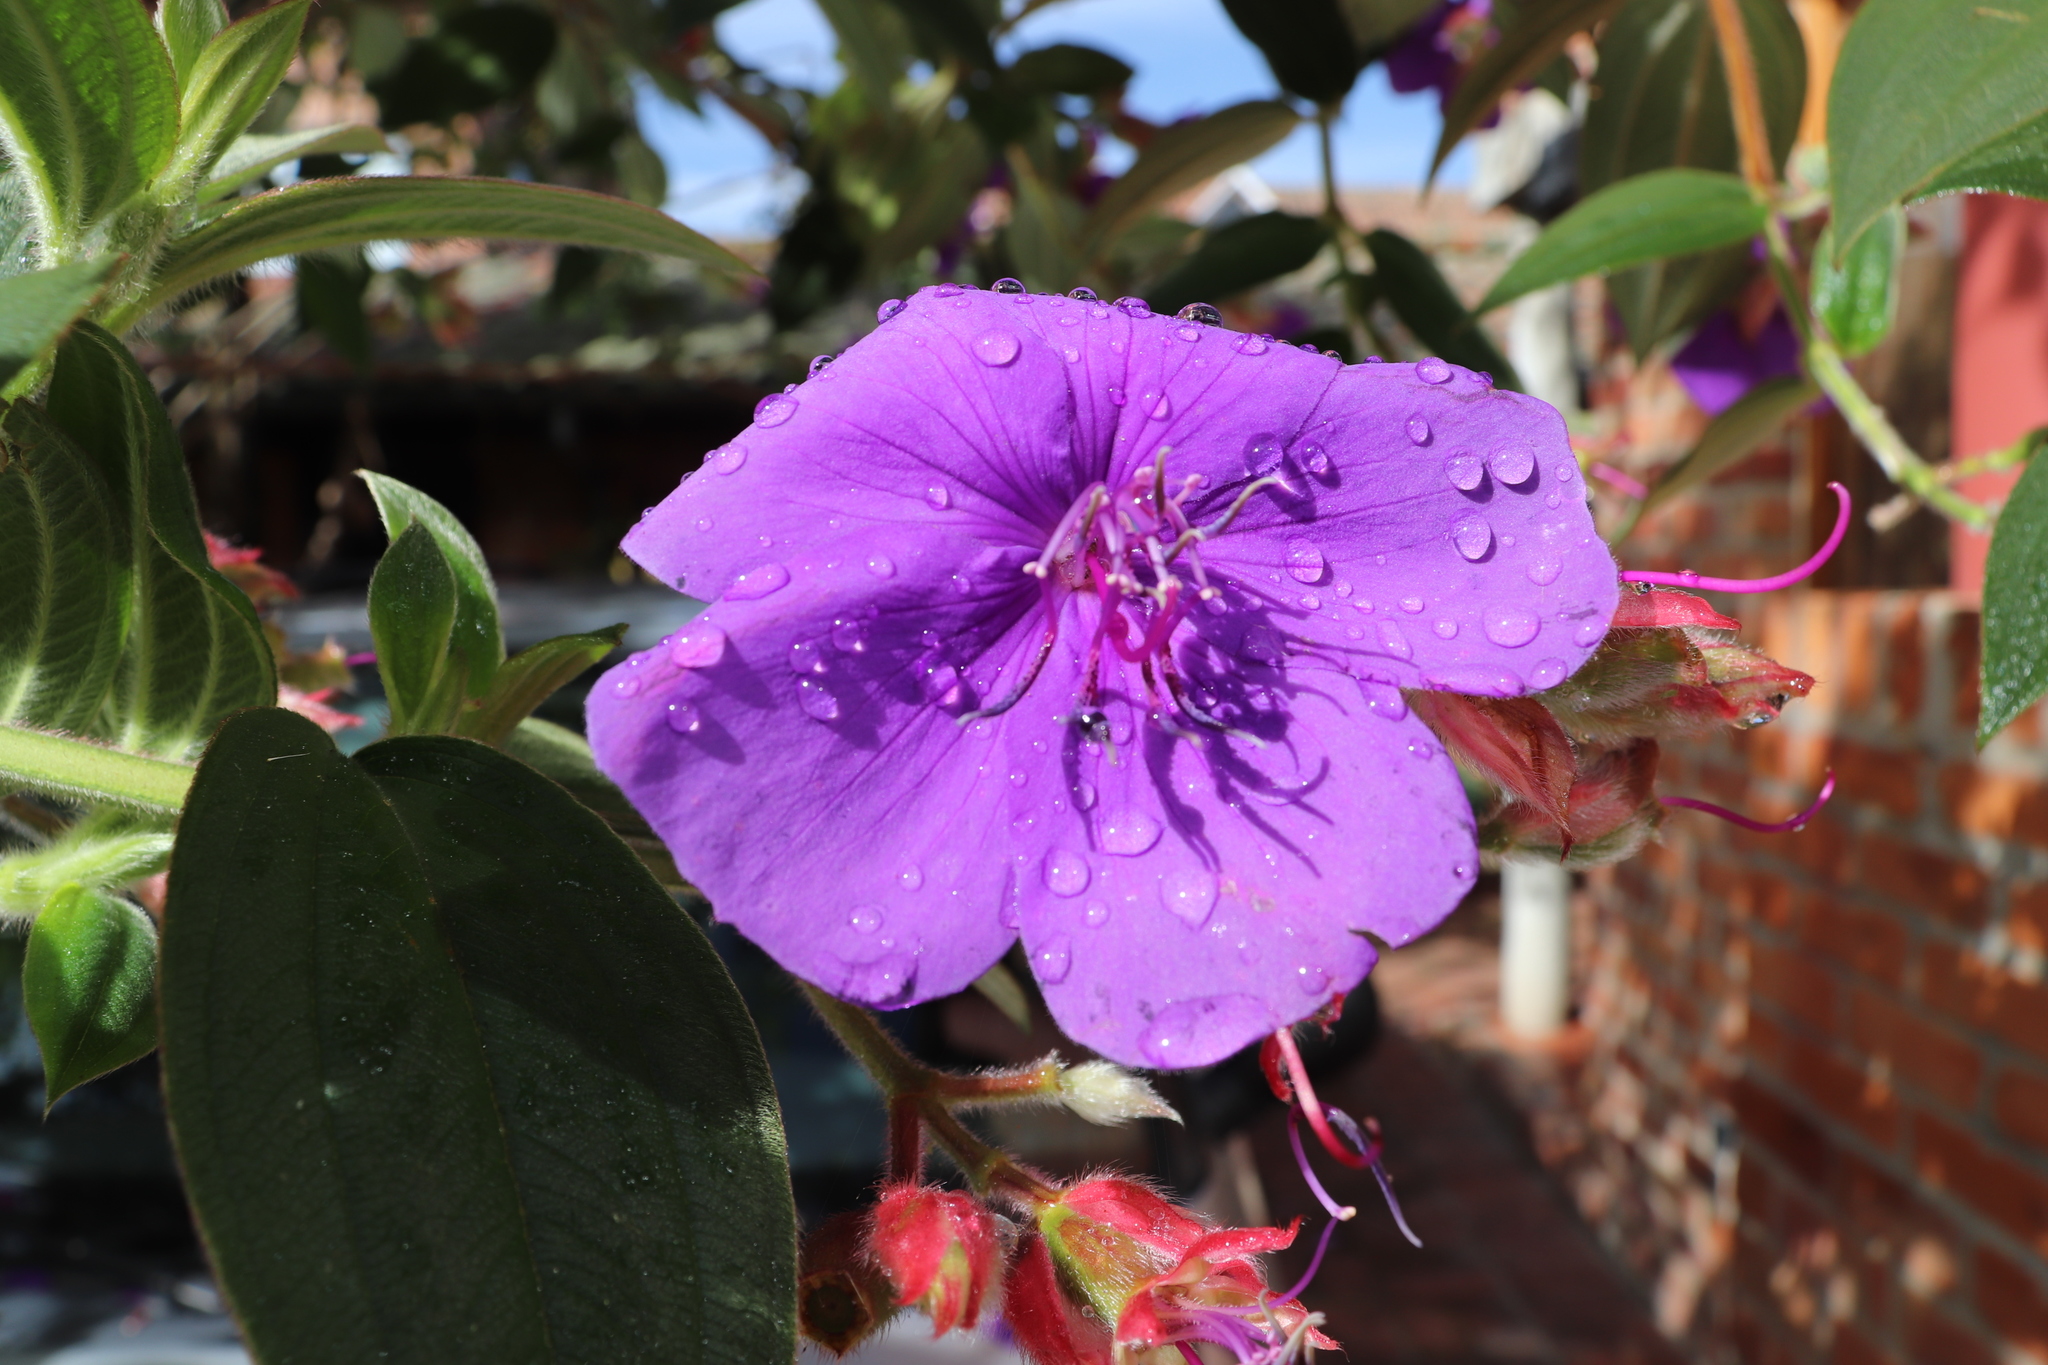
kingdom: Plantae
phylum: Tracheophyta
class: Magnoliopsida
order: Myrtales
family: Melastomataceae
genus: Pleroma
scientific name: Pleroma urvilleanum
